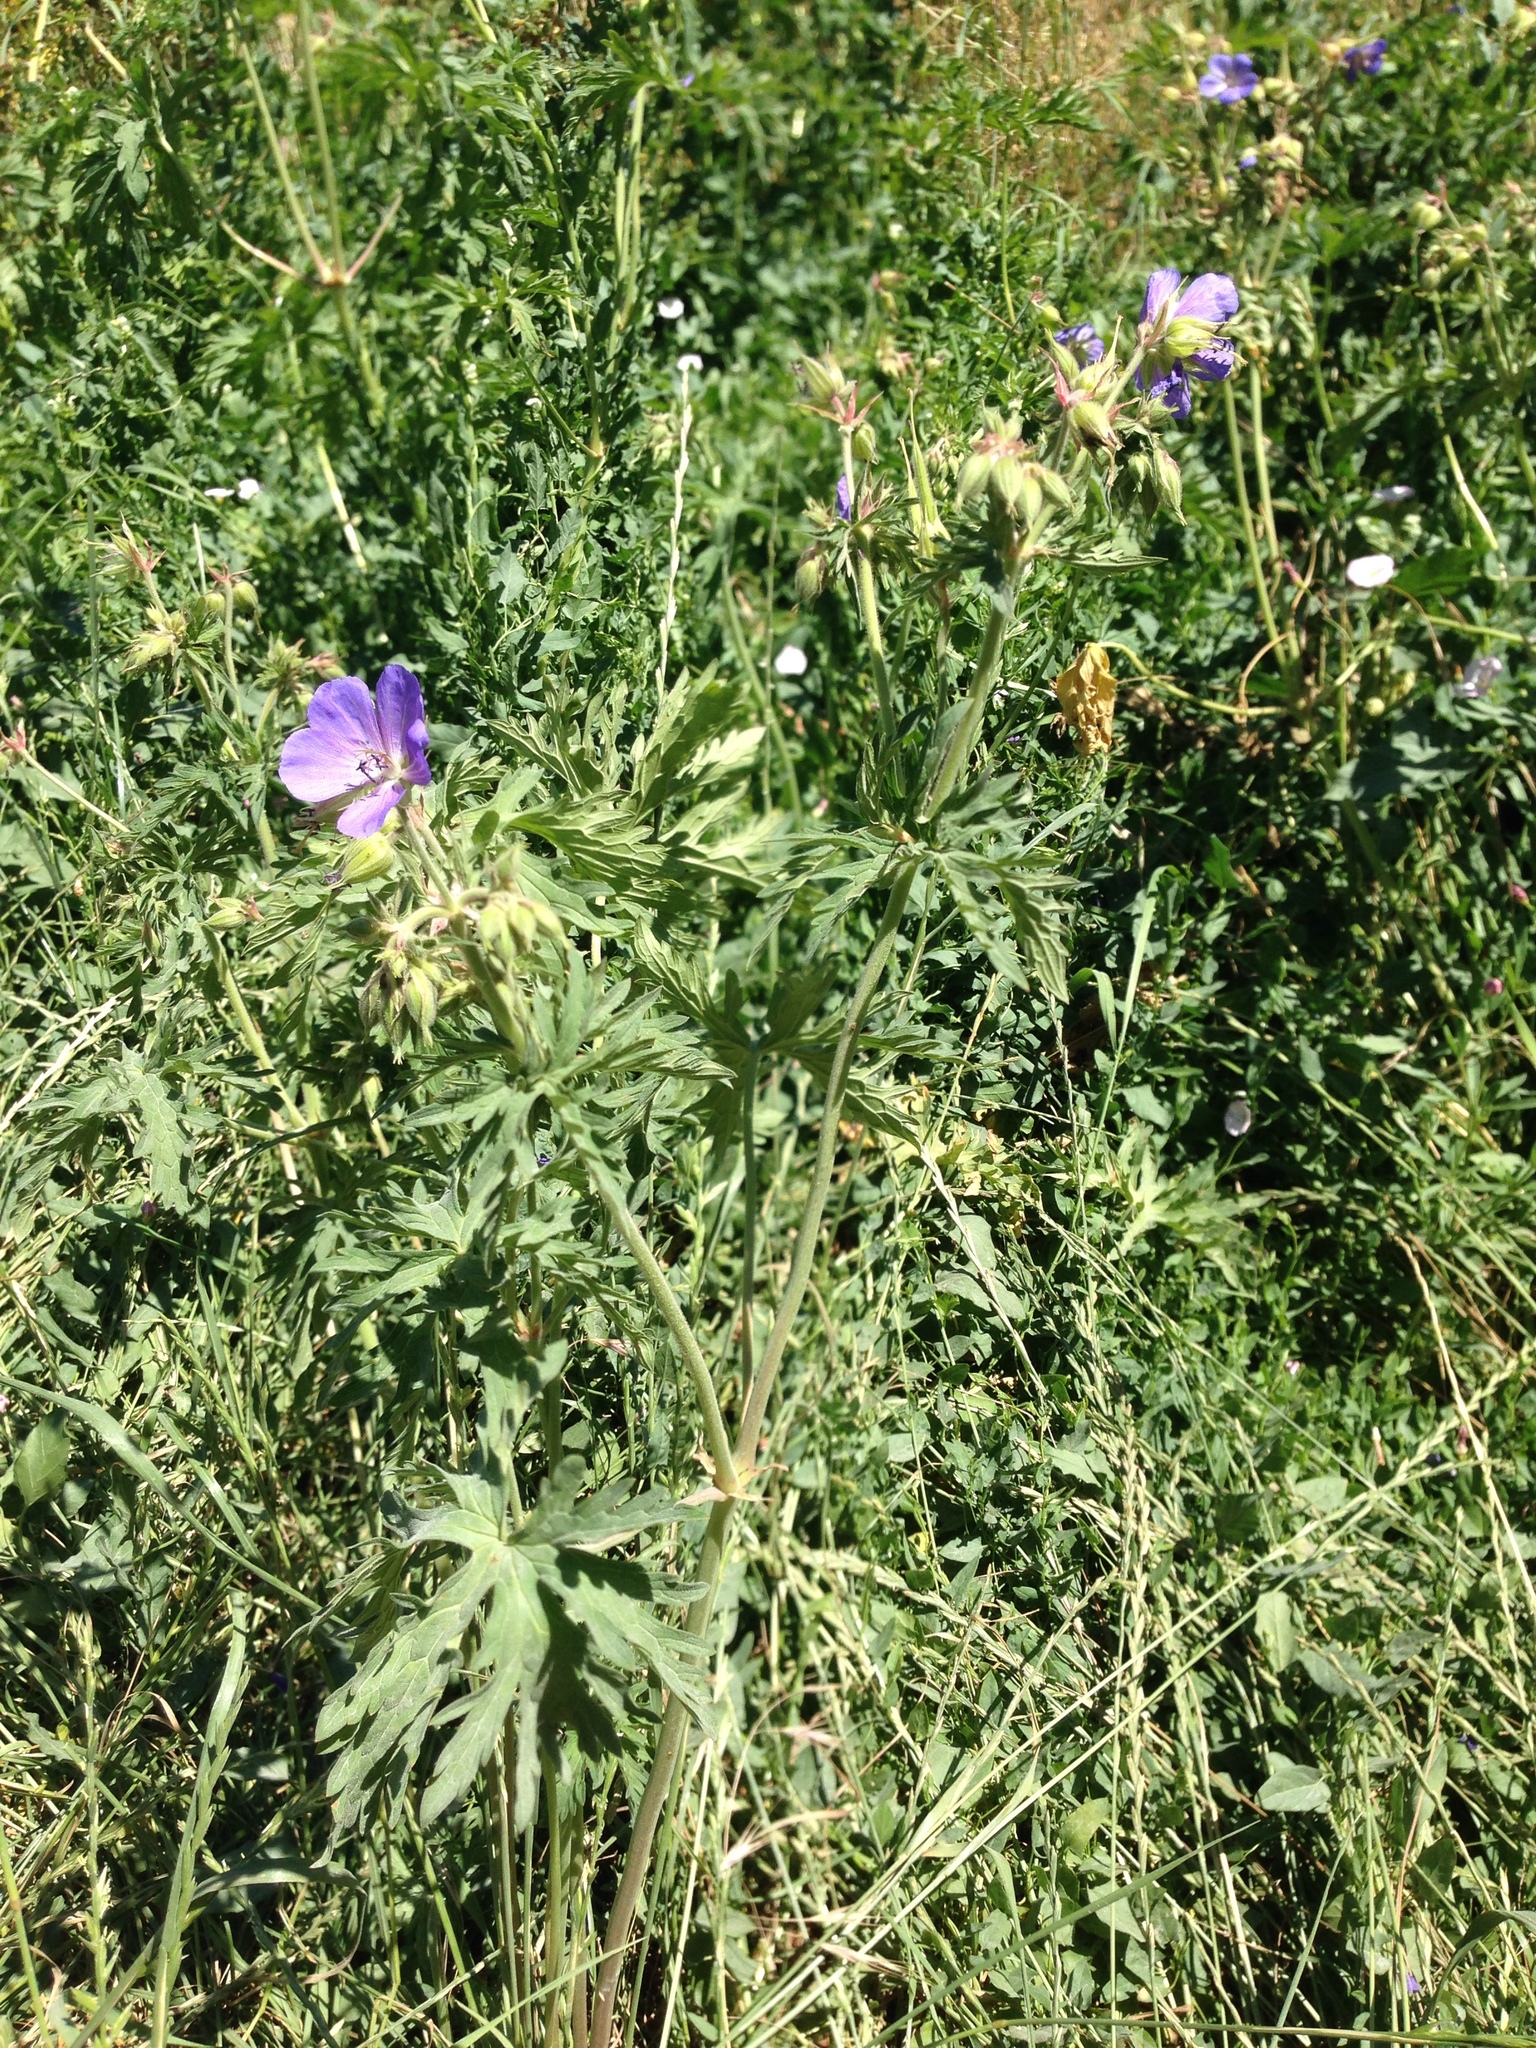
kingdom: Plantae
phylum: Tracheophyta
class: Magnoliopsida
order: Geraniales
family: Geraniaceae
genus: Geranium
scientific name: Geranium pratense
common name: Meadow crane's-bill
